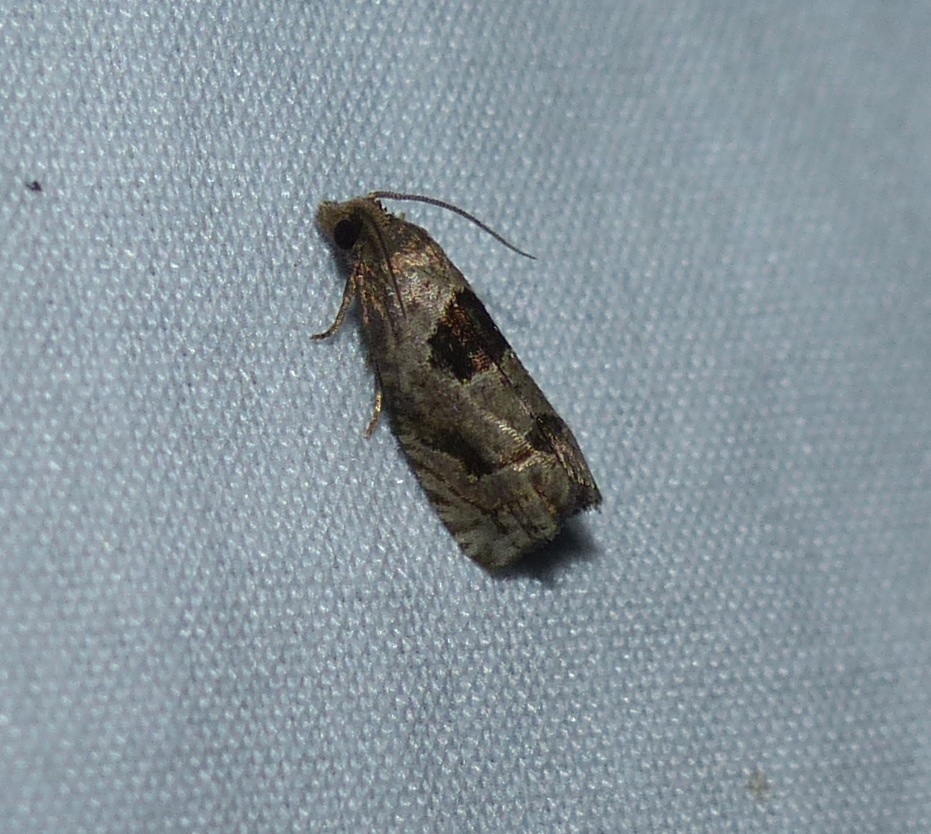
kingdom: Animalia
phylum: Arthropoda
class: Insecta
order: Lepidoptera
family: Tortricidae
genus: Epiblema
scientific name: Epiblema brightonana
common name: Brighton's epiblema moth
